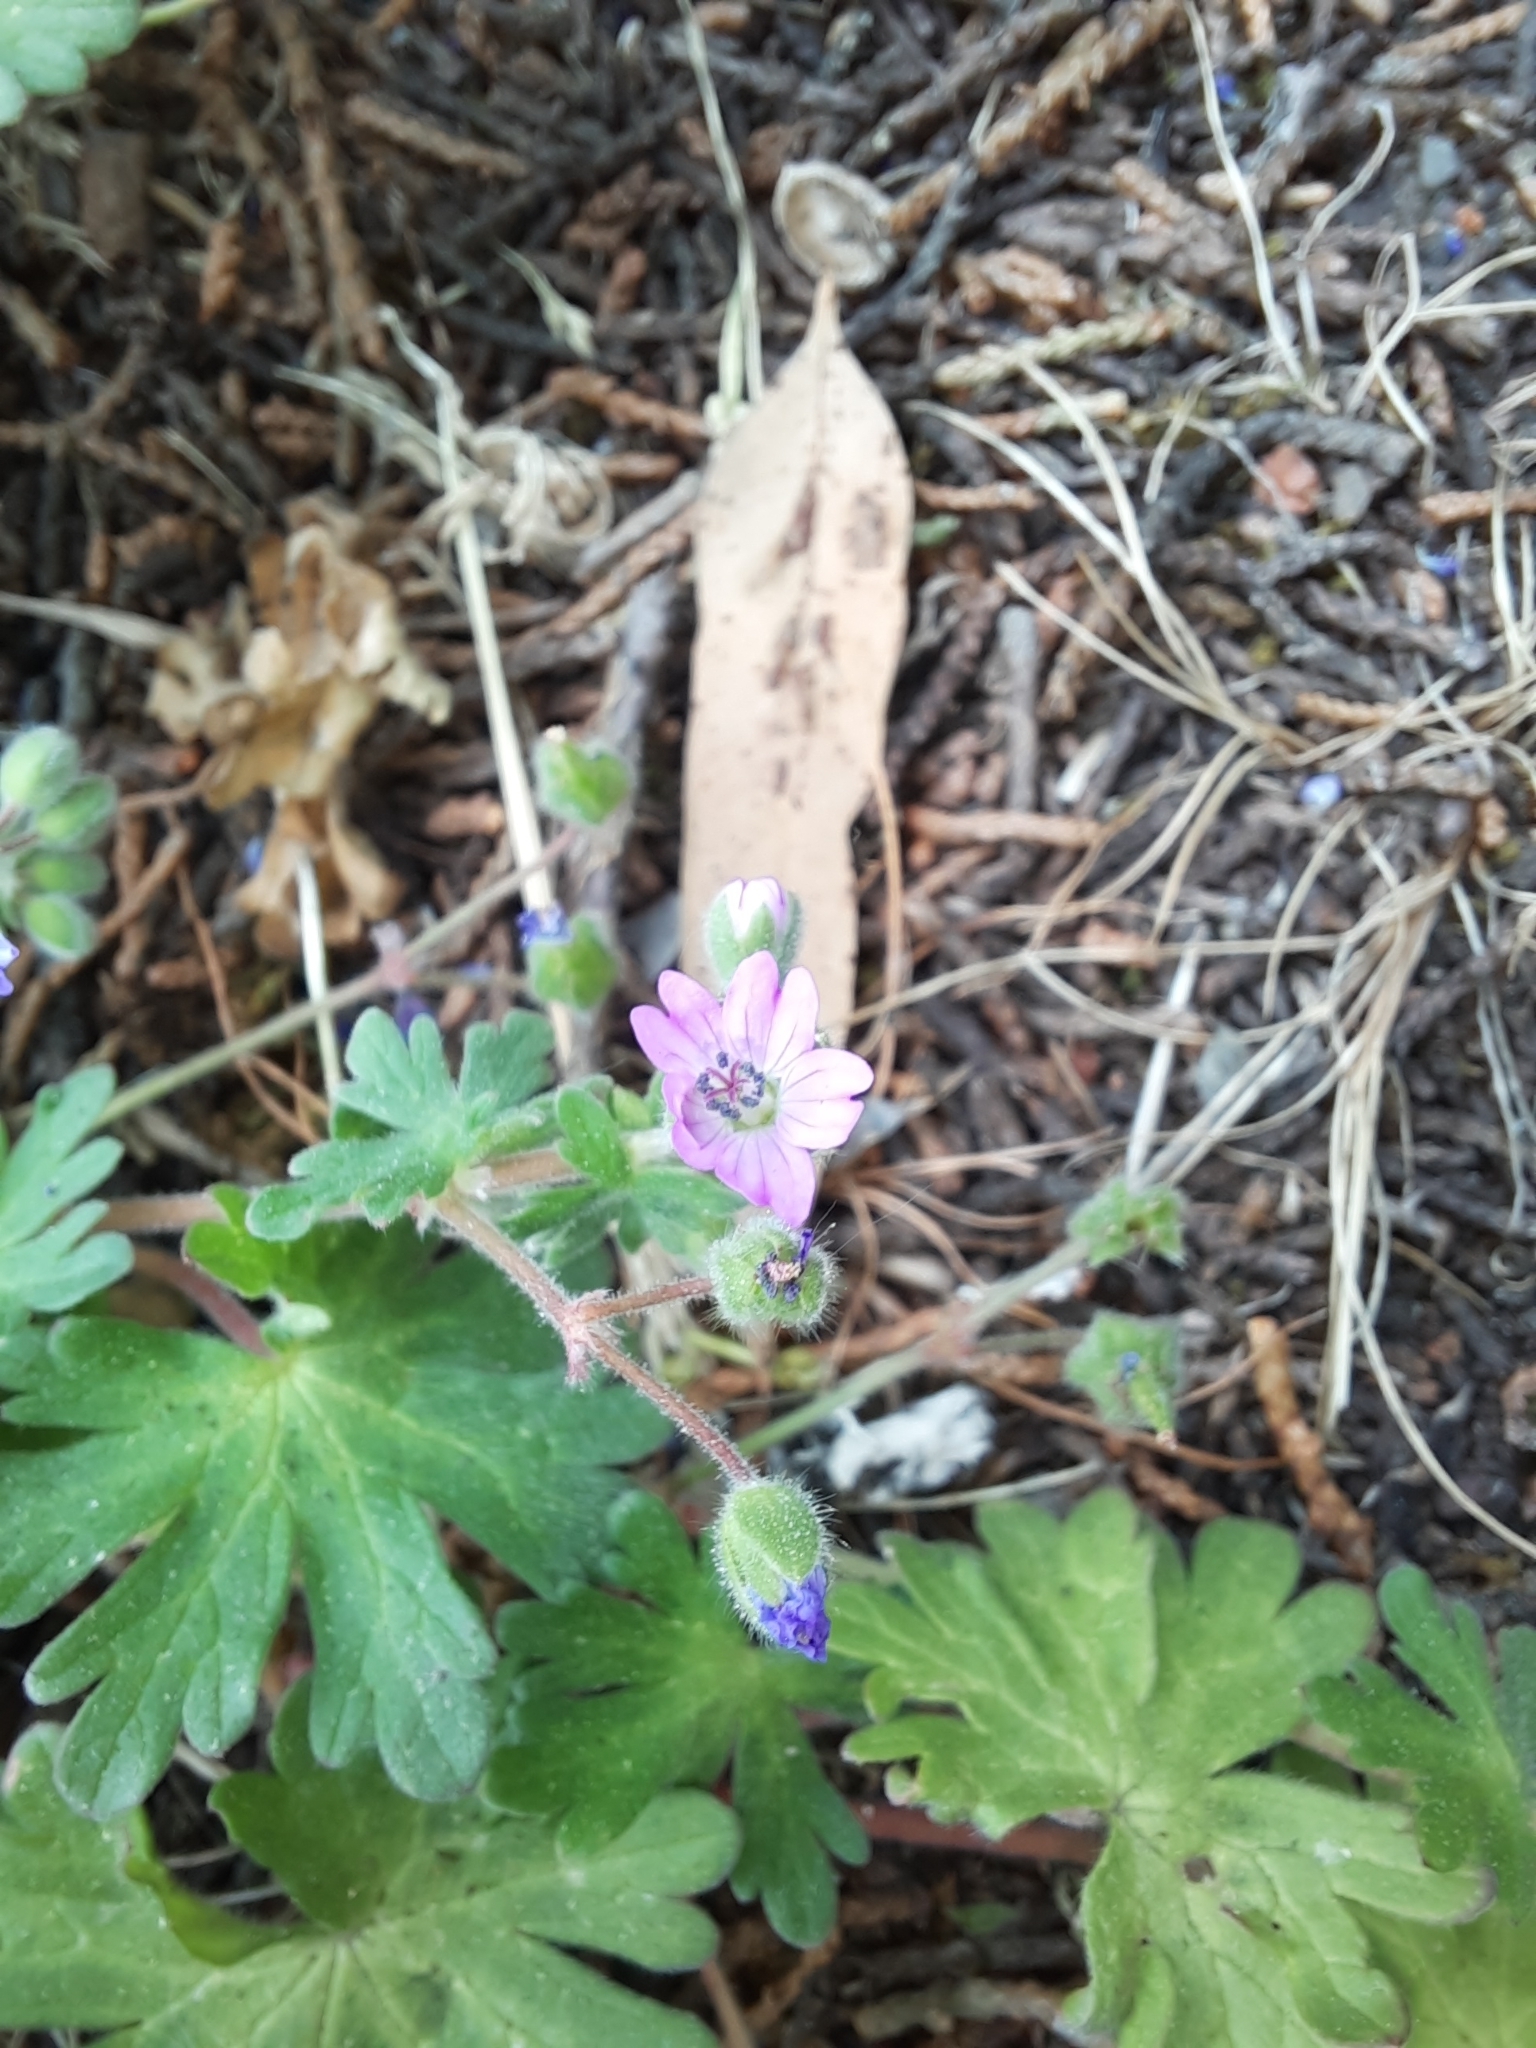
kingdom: Plantae
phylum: Tracheophyta
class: Magnoliopsida
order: Geraniales
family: Geraniaceae
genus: Geranium
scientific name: Geranium molle
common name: Dove's-foot crane's-bill
